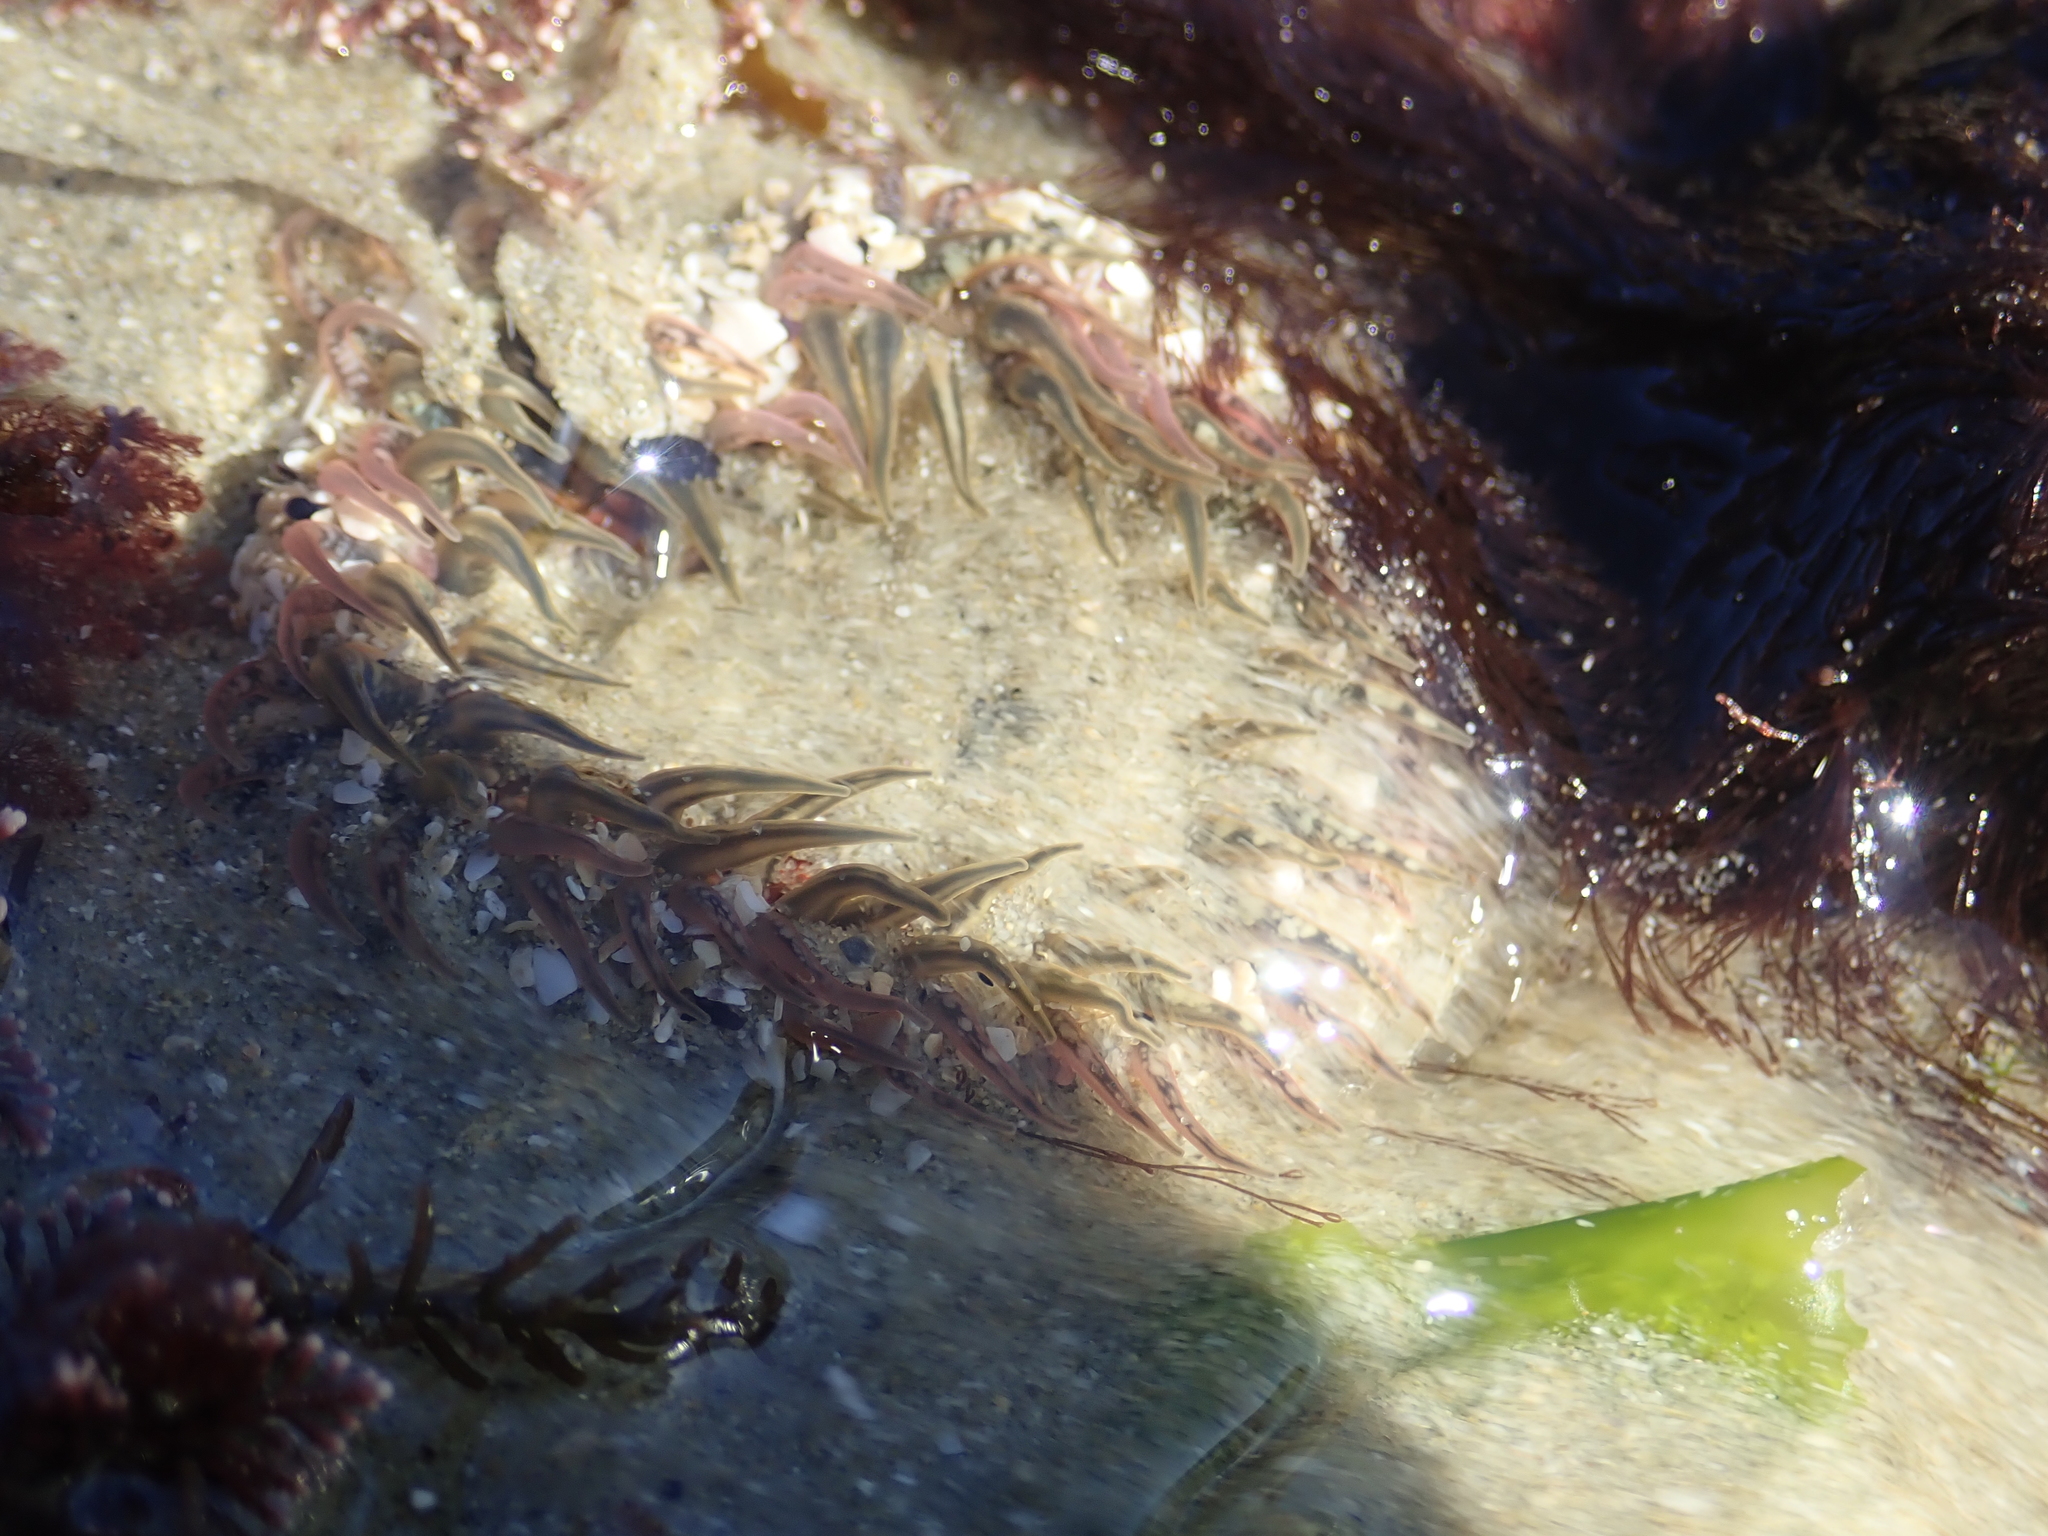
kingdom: Animalia
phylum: Cnidaria
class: Anthozoa
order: Actiniaria
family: Actiniidae
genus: Oulactis
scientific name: Oulactis muscosa
